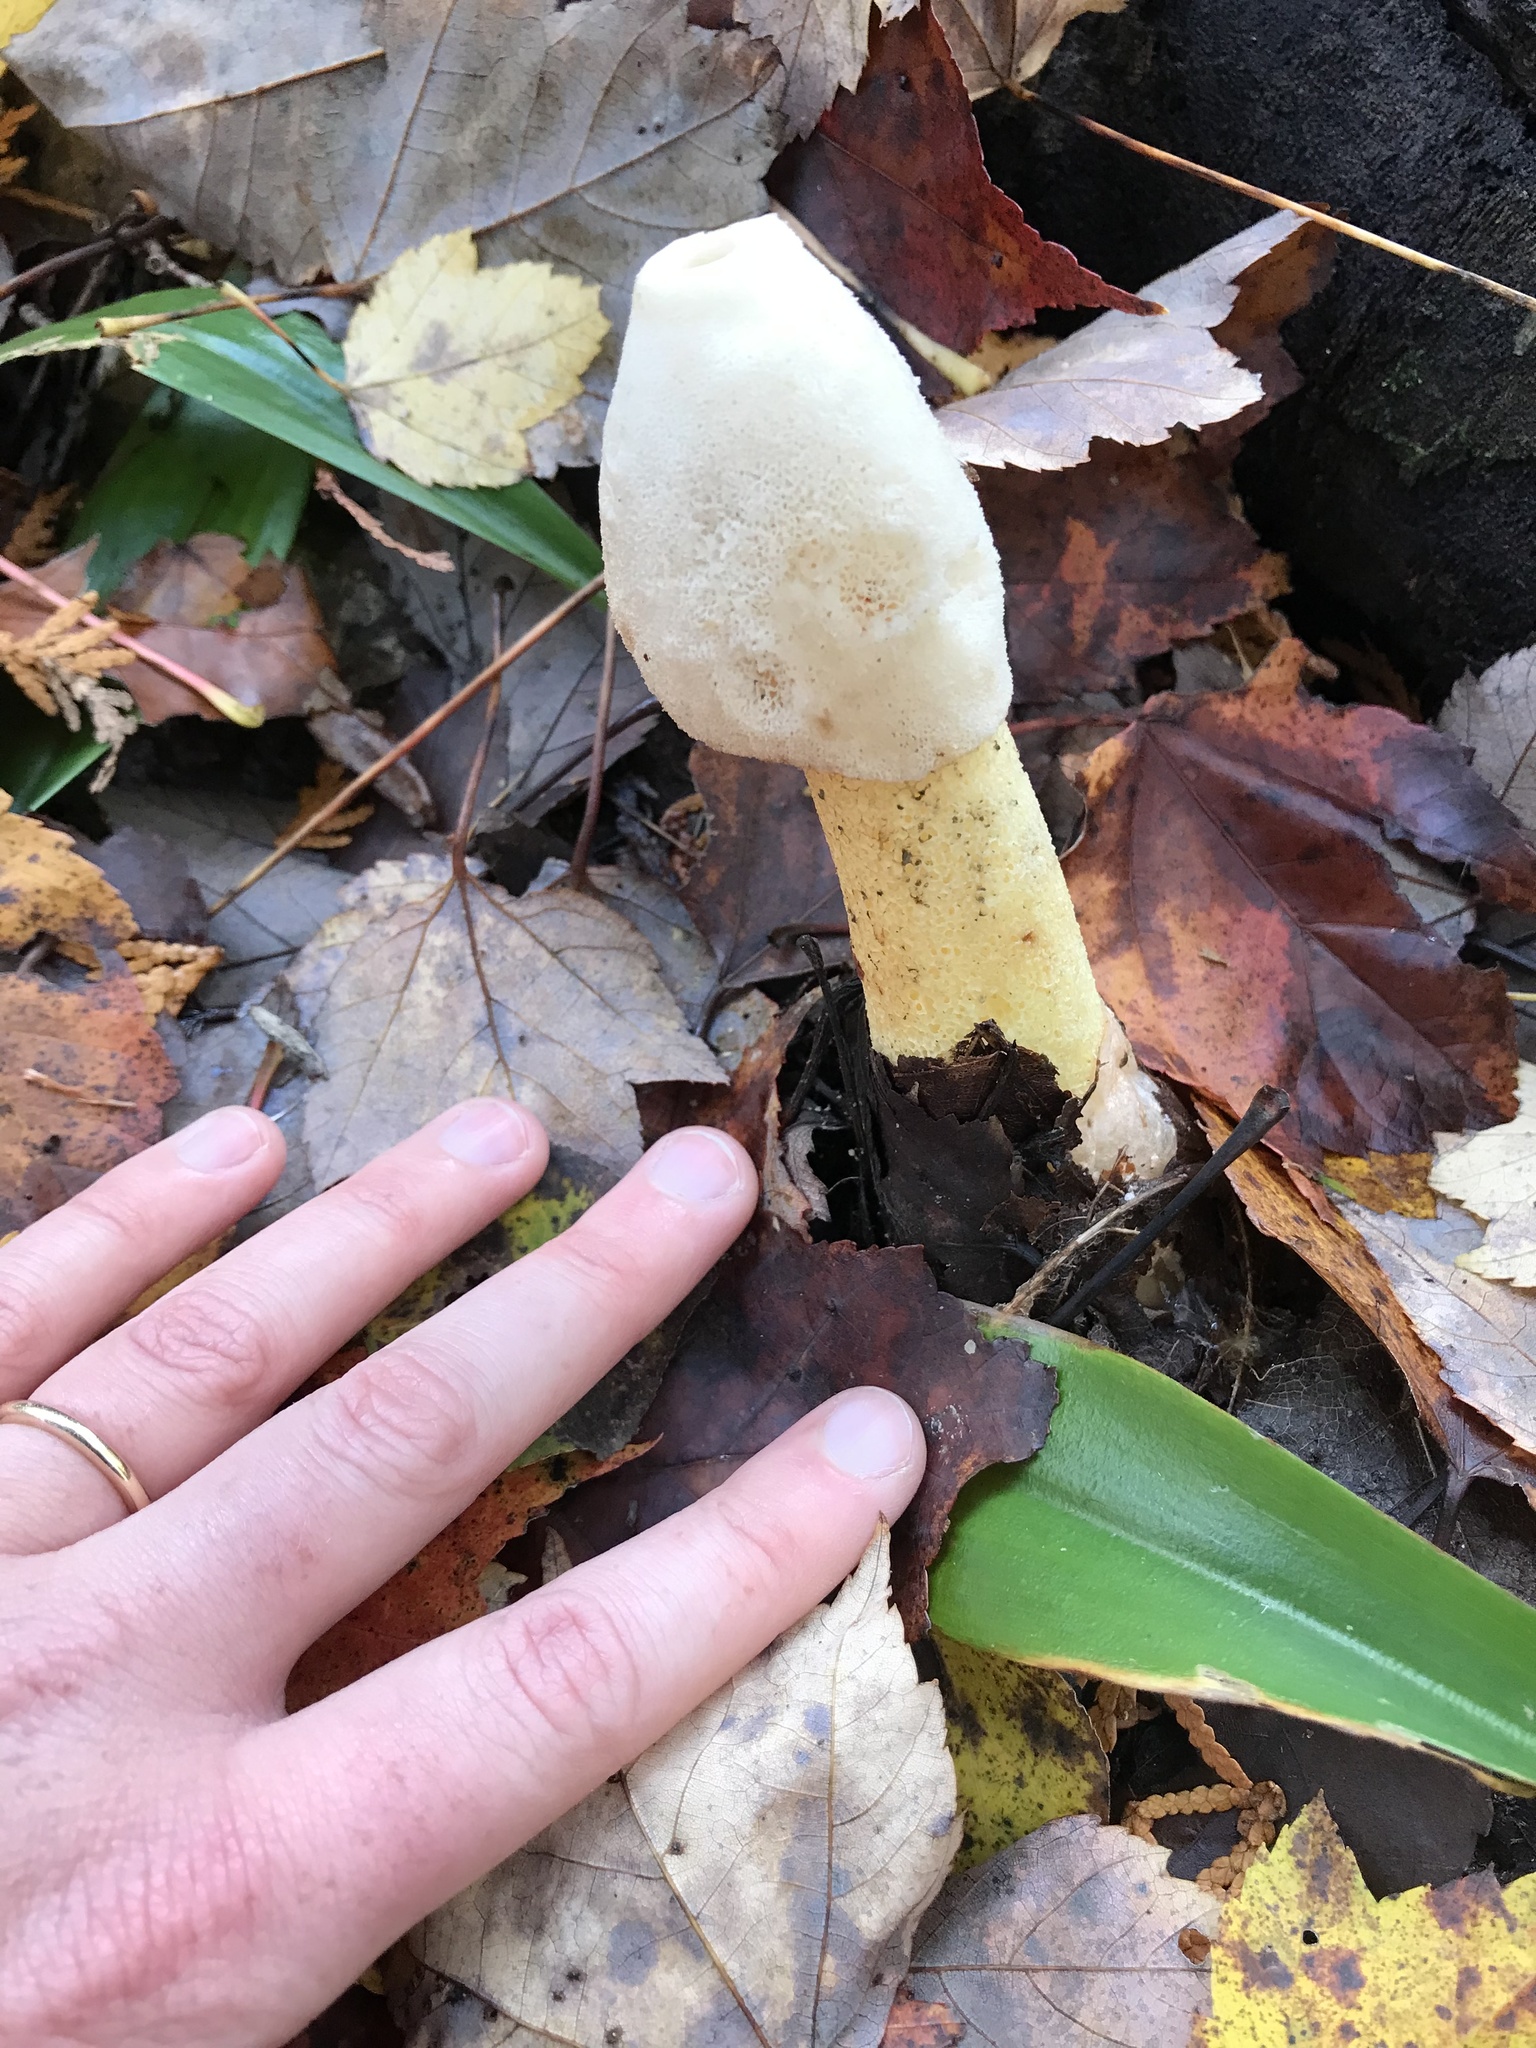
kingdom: Fungi
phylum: Basidiomycota
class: Agaricomycetes
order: Phallales
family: Phallaceae
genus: Phallus
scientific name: Phallus ravenelii
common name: Ravenel's stinkhorn
